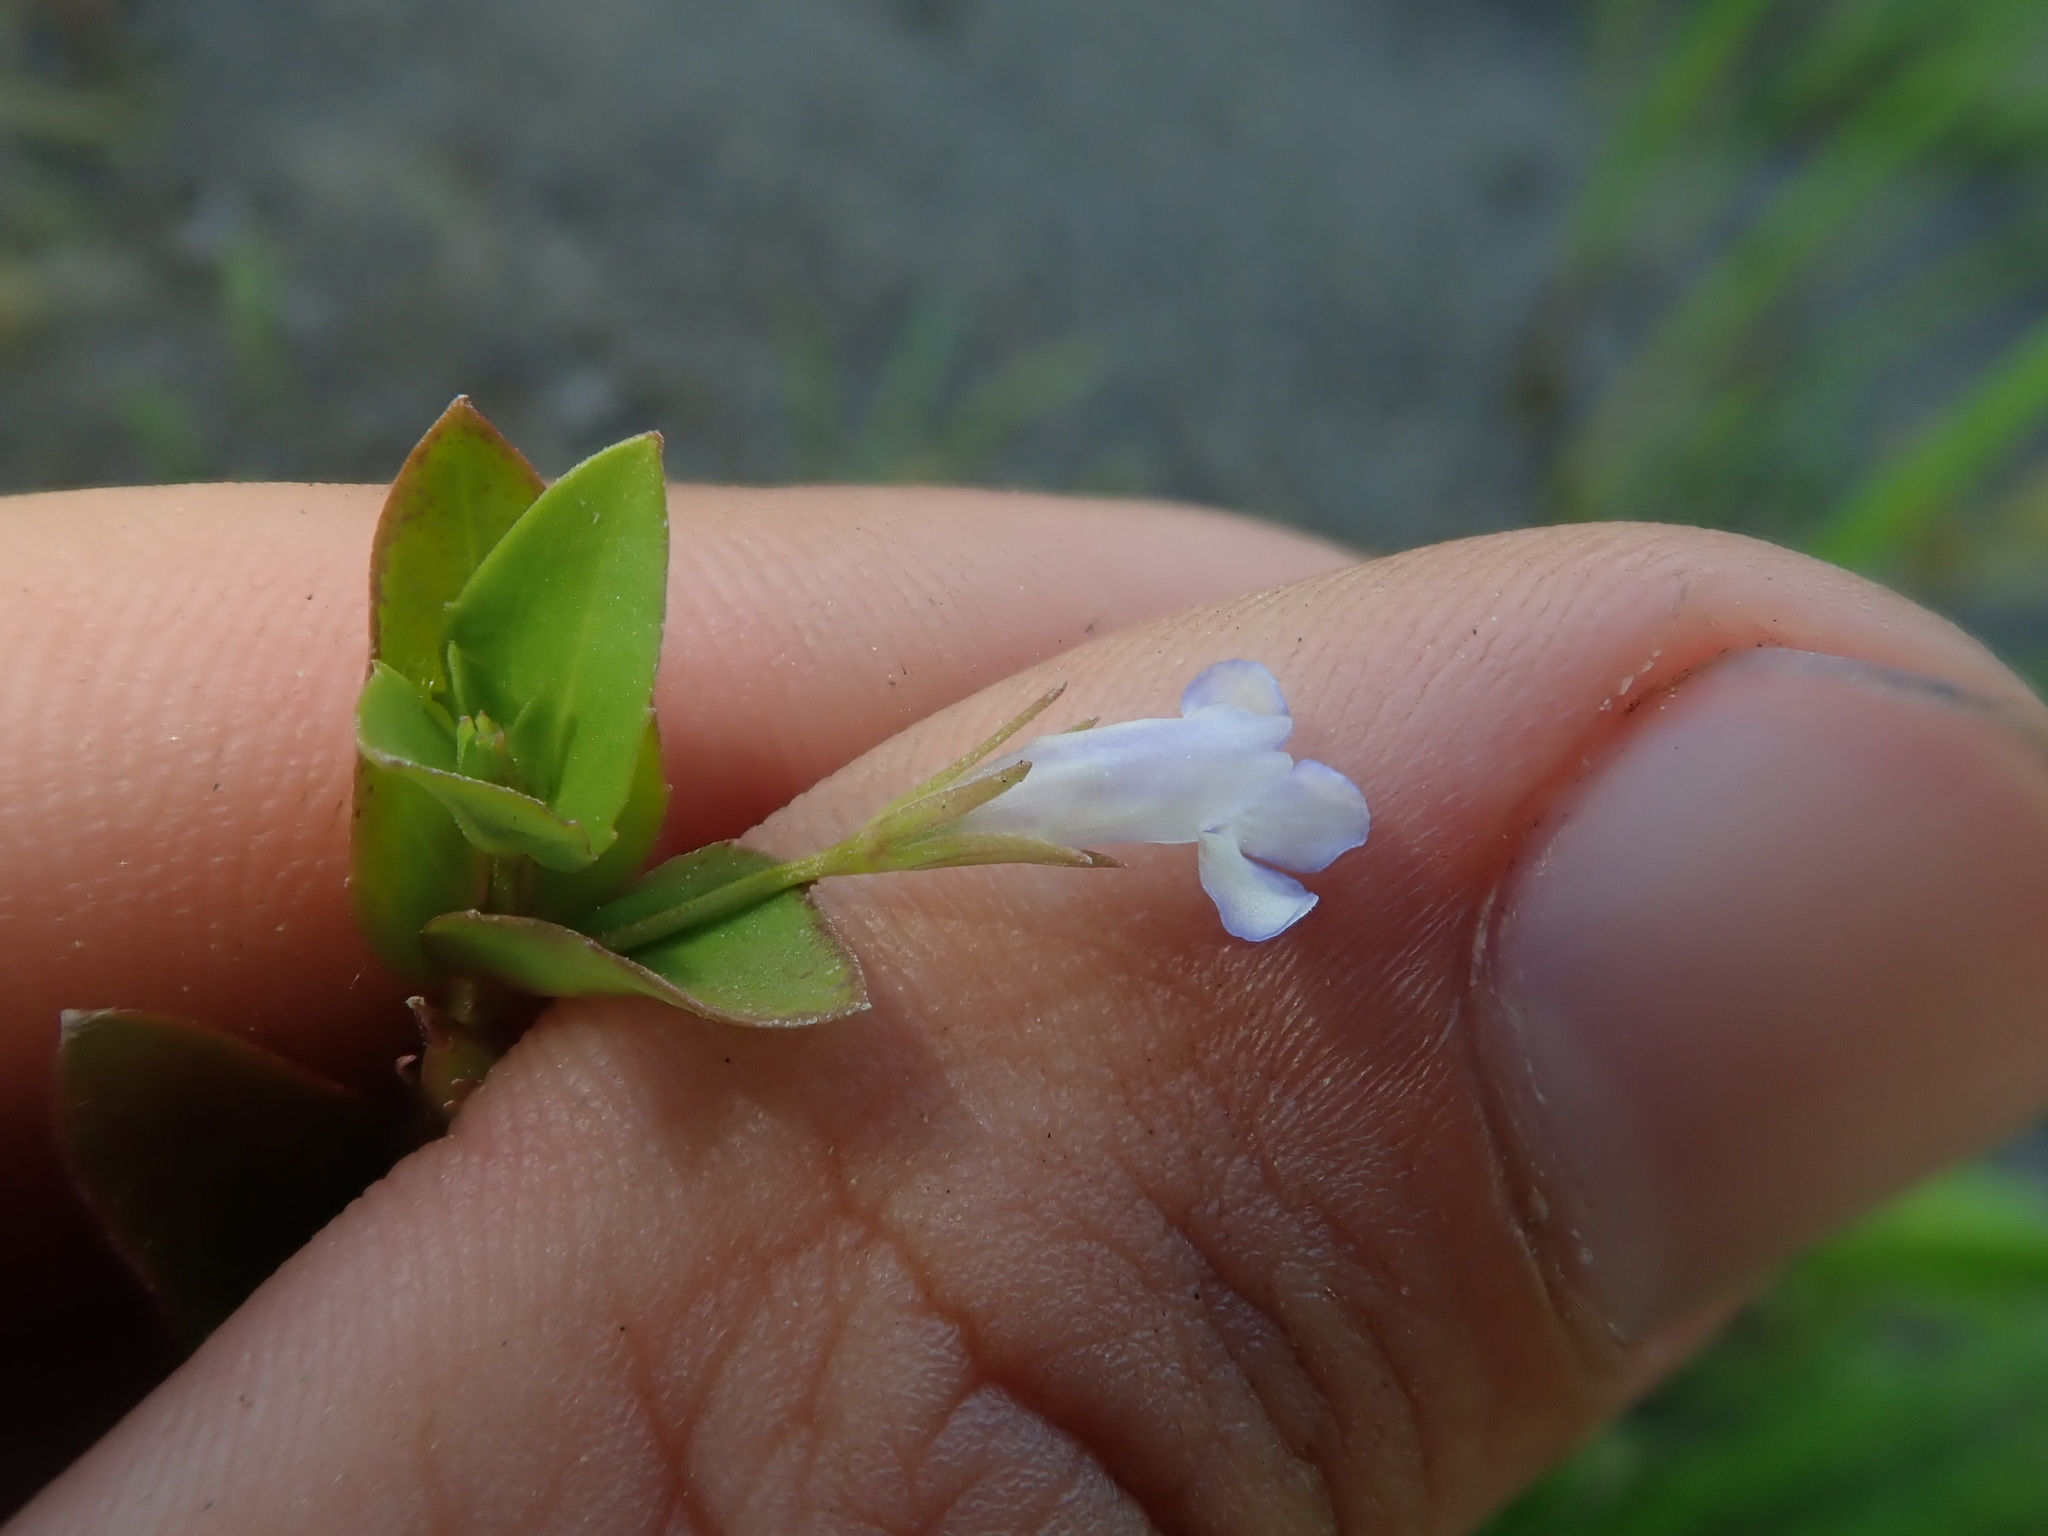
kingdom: Plantae
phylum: Tracheophyta
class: Magnoliopsida
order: Lamiales
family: Linderniaceae
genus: Lindernia
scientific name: Lindernia dubia
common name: Annual false pimpernel
